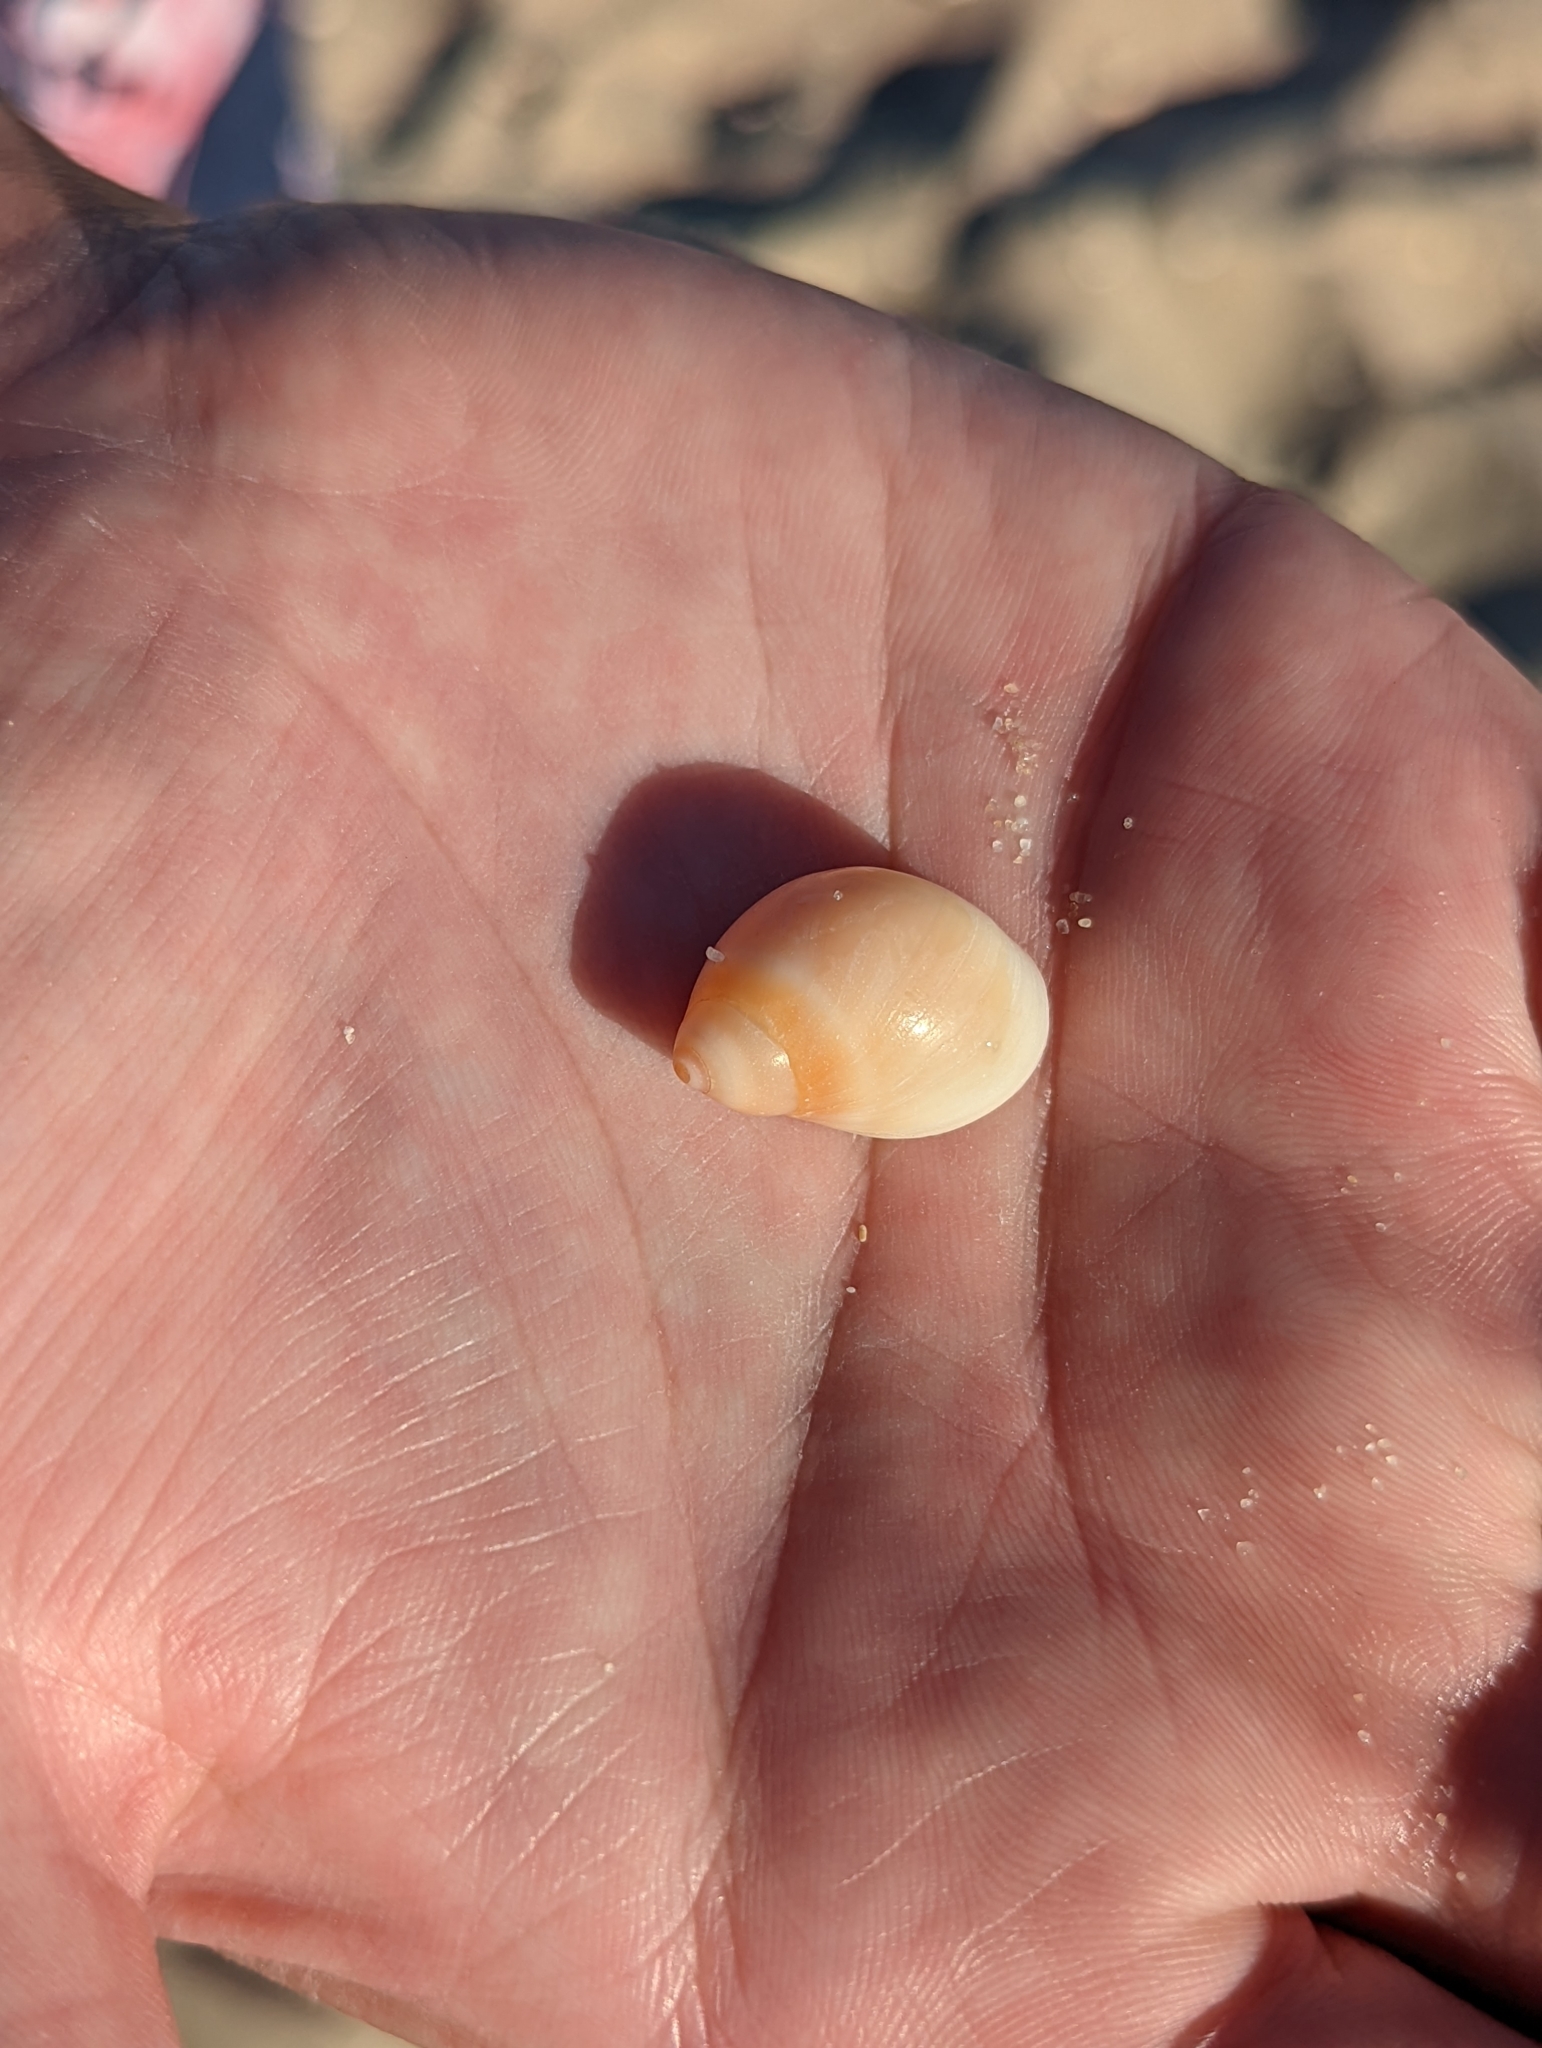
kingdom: Animalia
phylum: Mollusca
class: Gastropoda
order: Littorinimorpha
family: Naticidae
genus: Conuber
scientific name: Conuber conicum
